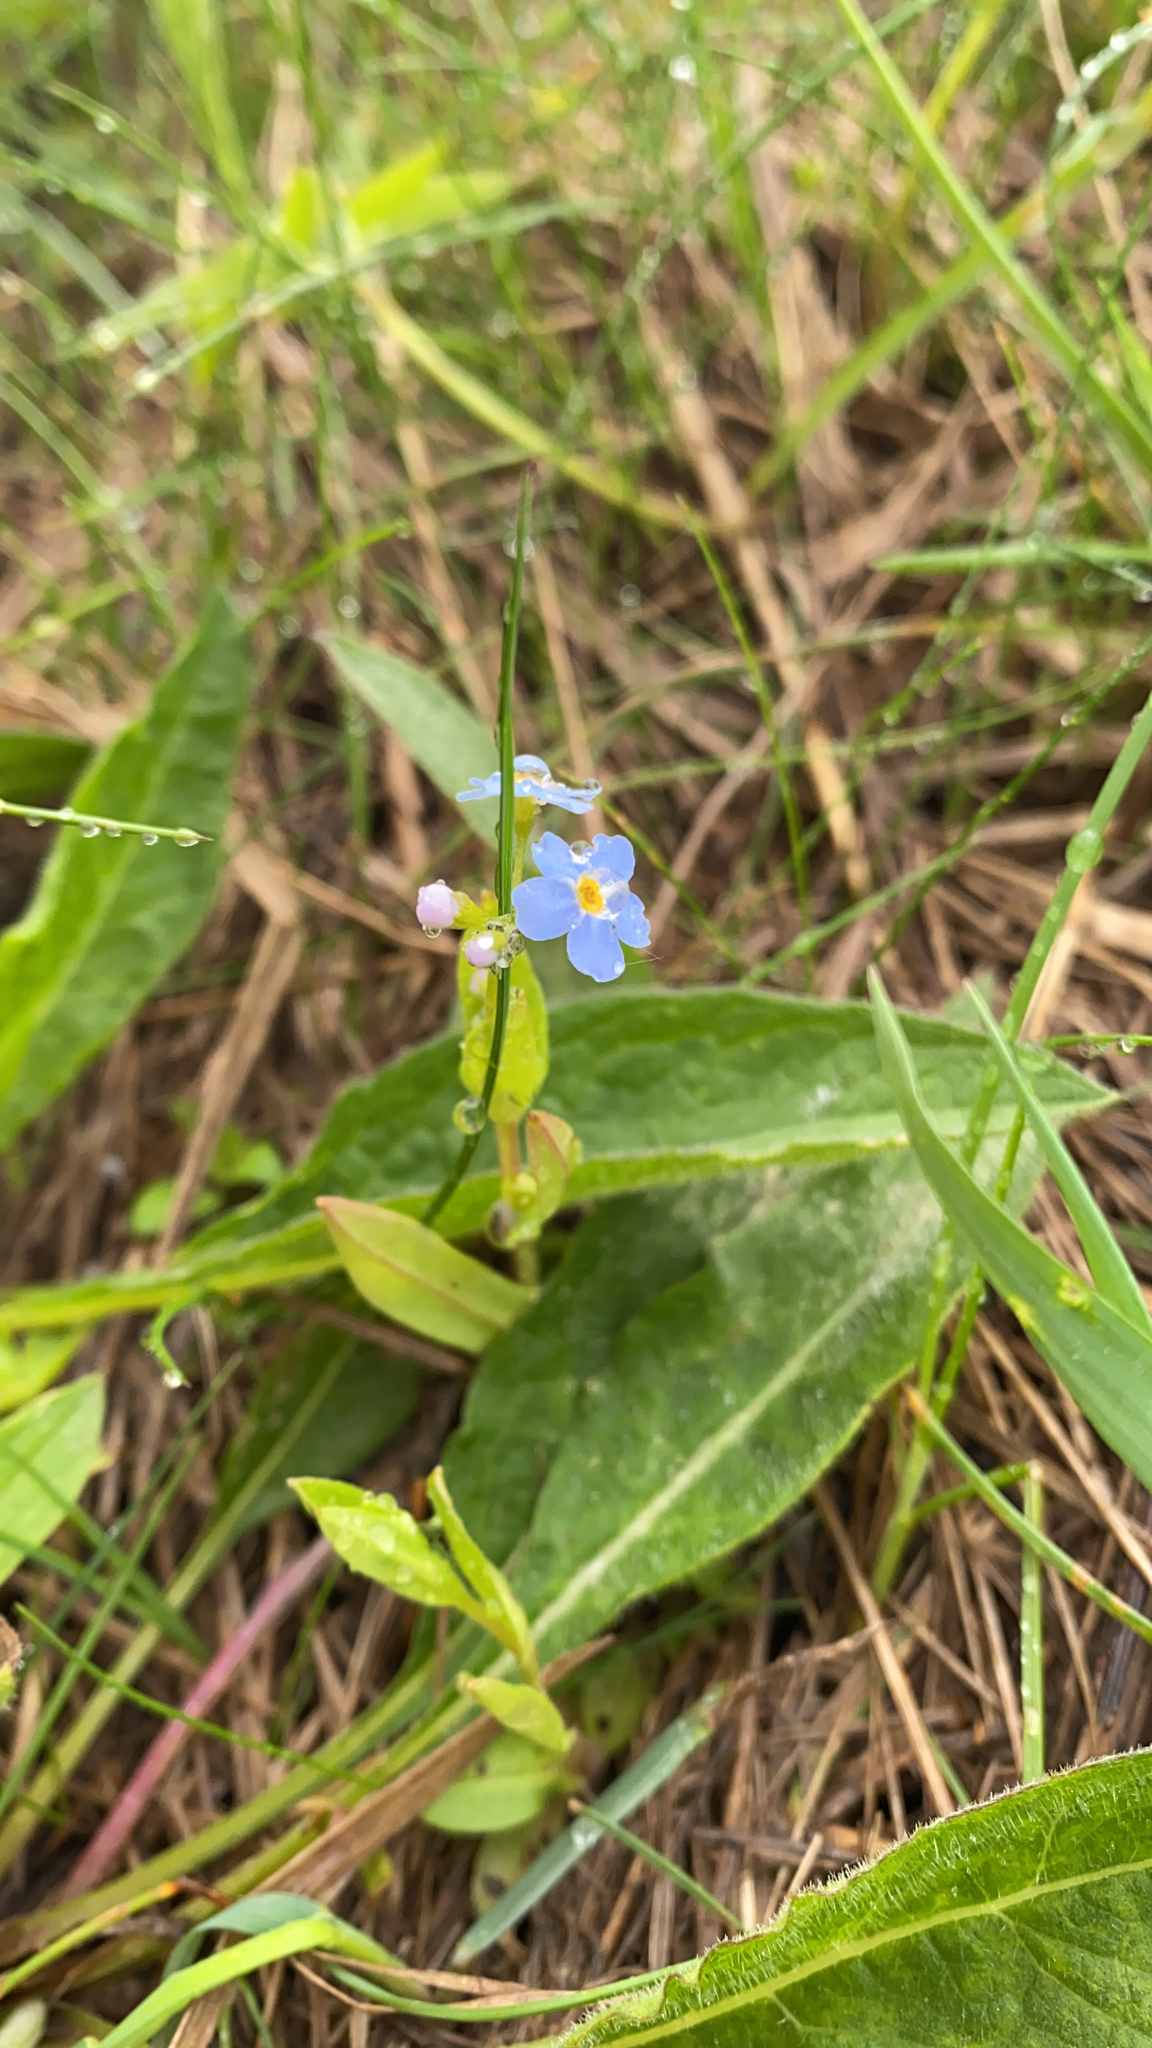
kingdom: Plantae
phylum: Tracheophyta
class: Magnoliopsida
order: Boraginales
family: Boraginaceae
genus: Myosotis
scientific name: Myosotis scorpioides
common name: Water forget-me-not
